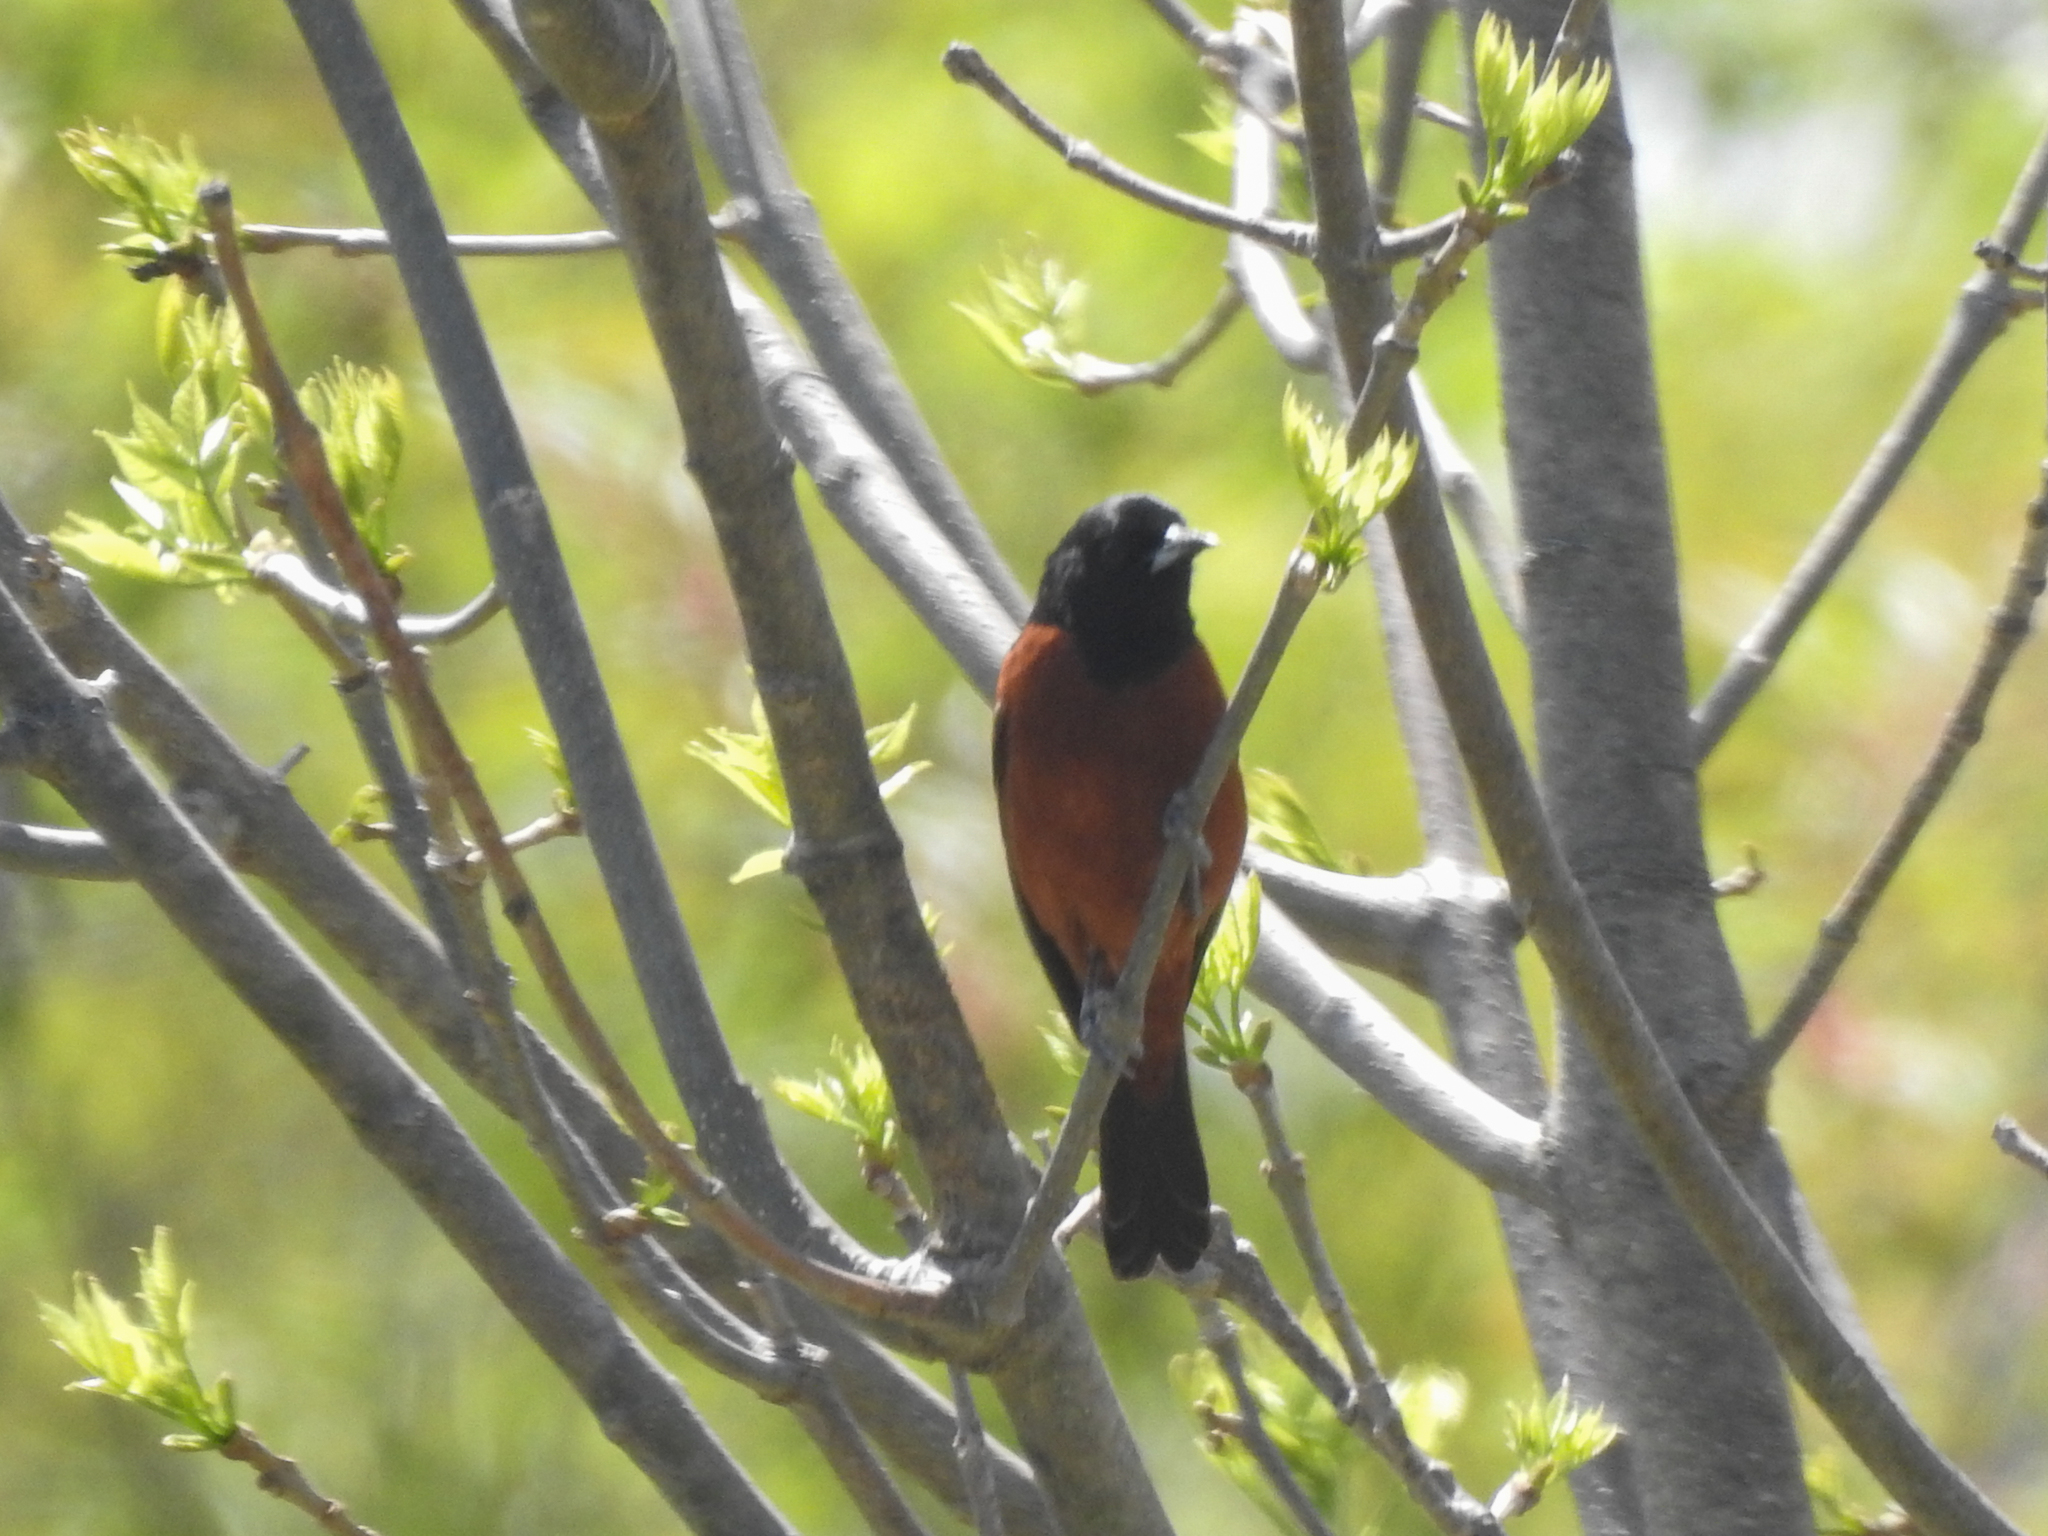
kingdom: Animalia
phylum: Chordata
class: Aves
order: Passeriformes
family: Icteridae
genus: Icterus
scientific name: Icterus spurius
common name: Orchard oriole
